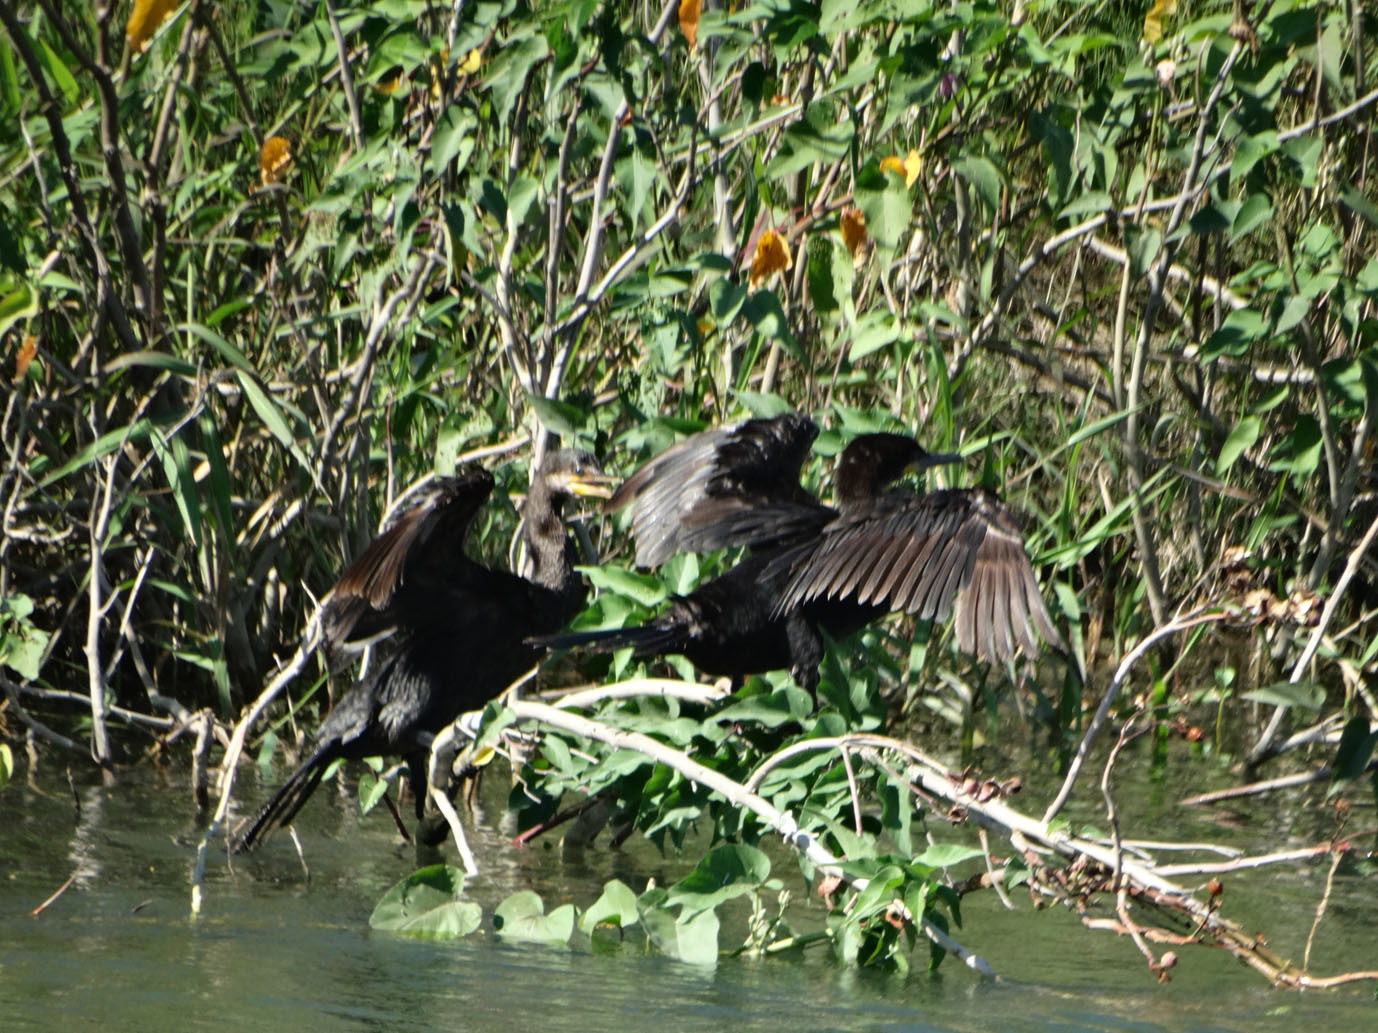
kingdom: Animalia
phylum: Chordata
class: Aves
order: Suliformes
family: Phalacrocoracidae
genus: Phalacrocorax
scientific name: Phalacrocorax brasilianus
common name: Neotropic cormorant
